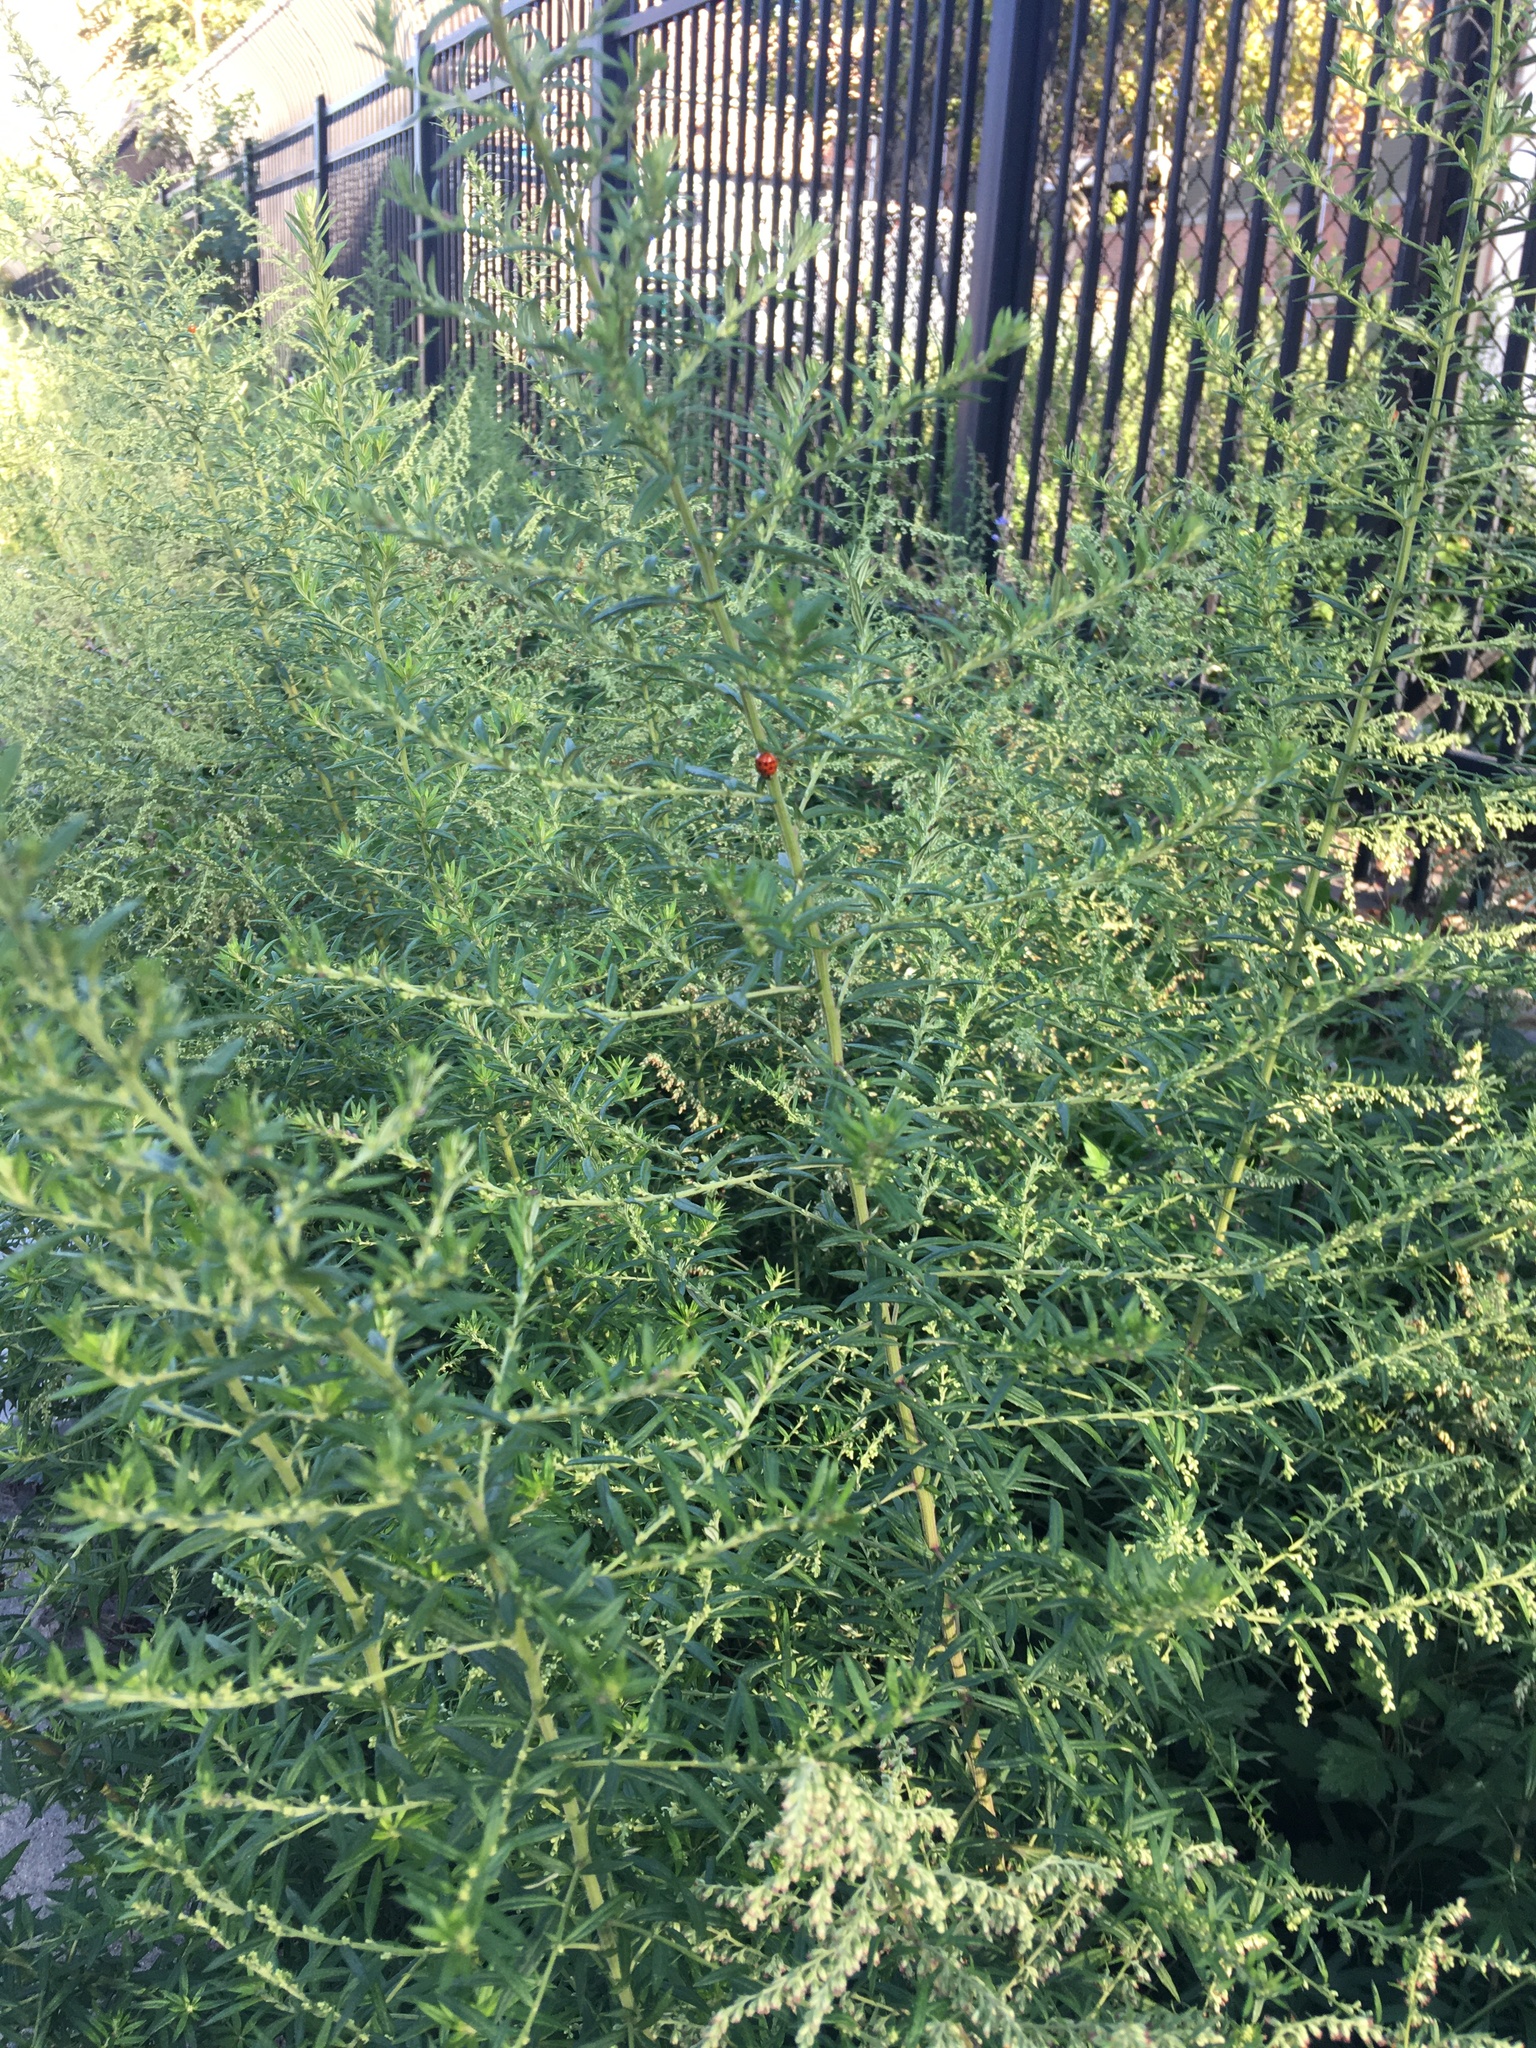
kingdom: Plantae
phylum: Tracheophyta
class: Magnoliopsida
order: Asterales
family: Asteraceae
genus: Artemisia
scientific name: Artemisia vulgaris
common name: Mugwort
